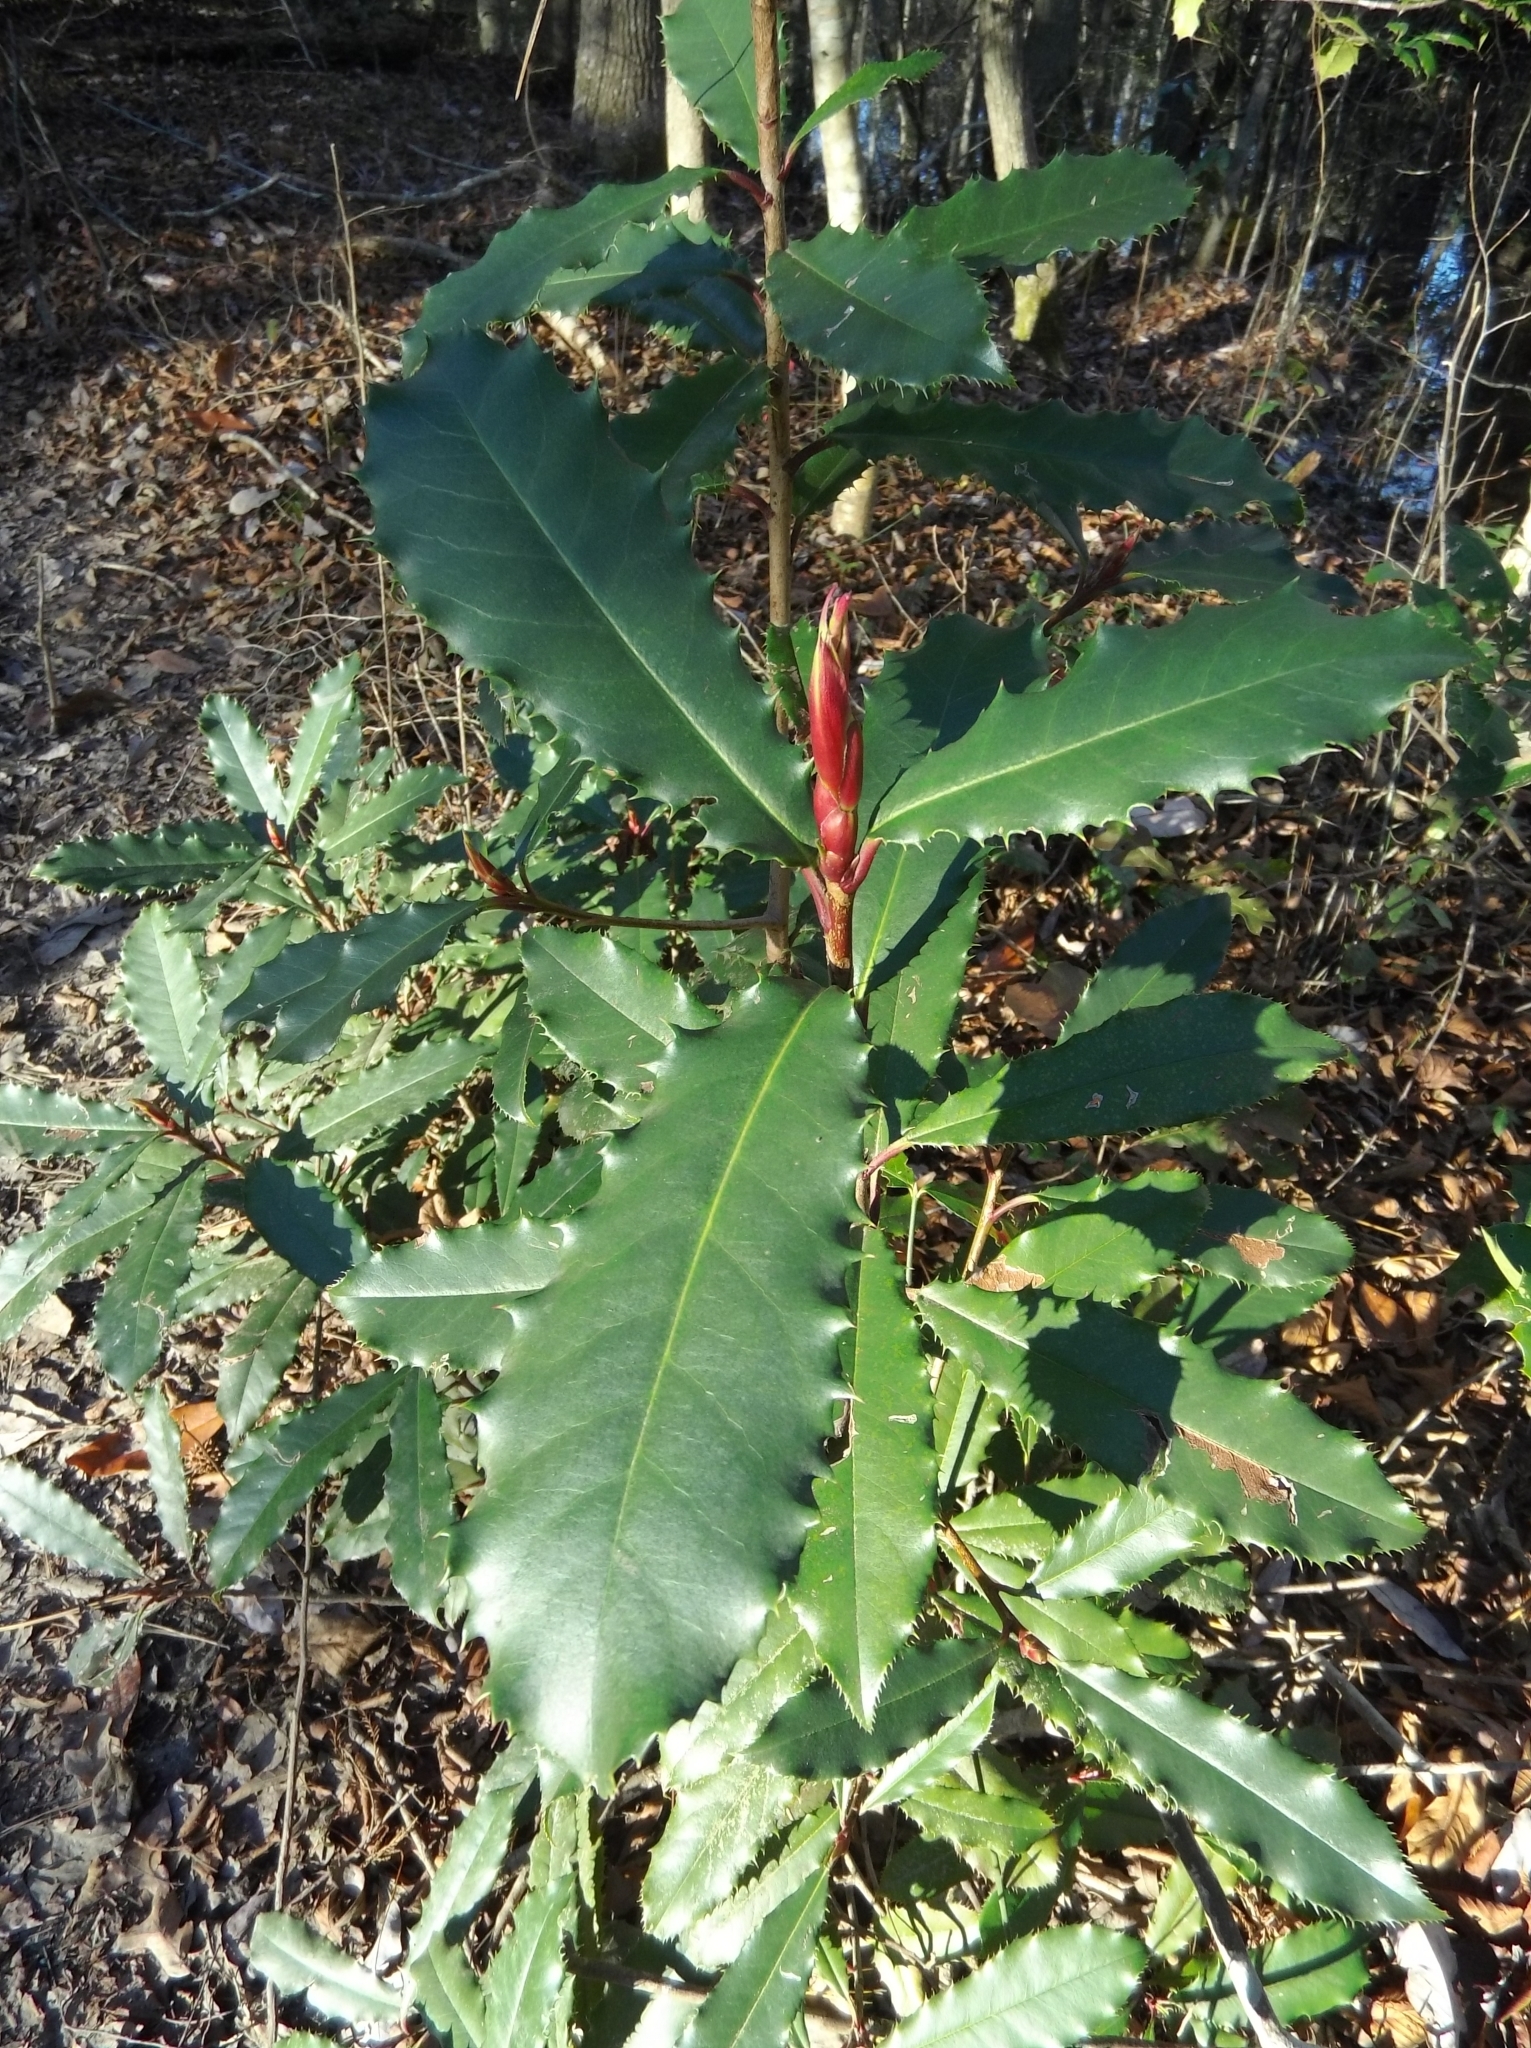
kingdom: Plantae
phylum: Tracheophyta
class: Magnoliopsida
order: Rosales
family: Rosaceae
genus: Photinia
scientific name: Photinia serratifolia
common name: Taiwanese photinia
